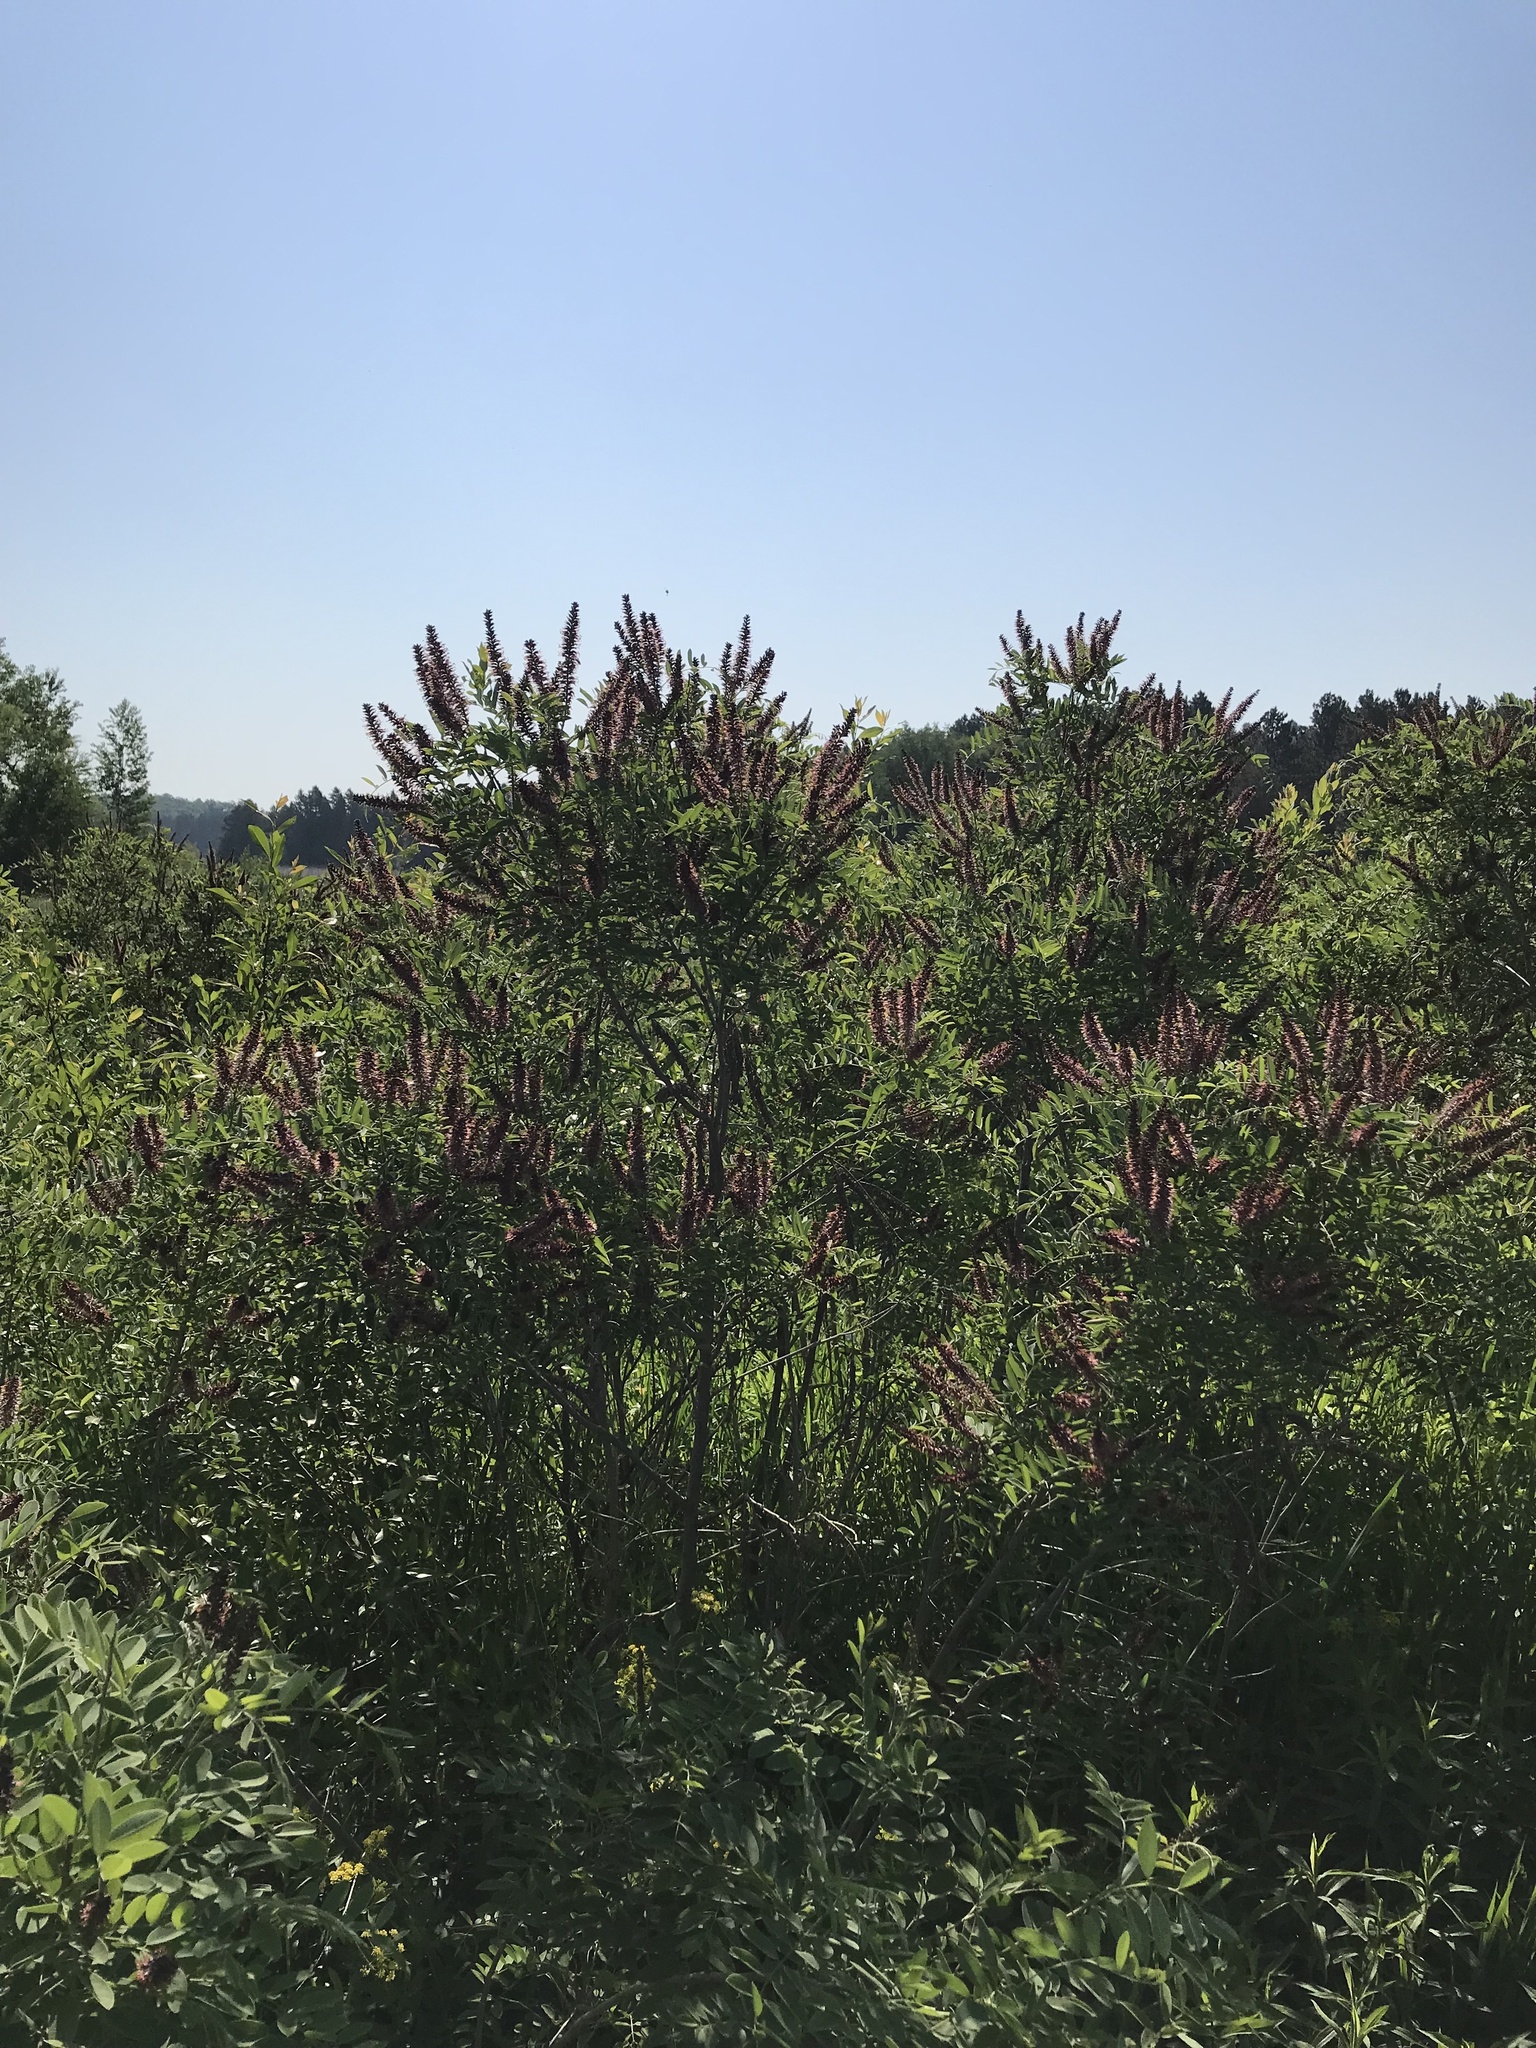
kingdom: Plantae
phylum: Tracheophyta
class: Magnoliopsida
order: Fabales
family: Fabaceae
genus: Amorpha
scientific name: Amorpha fruticosa
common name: False indigo
